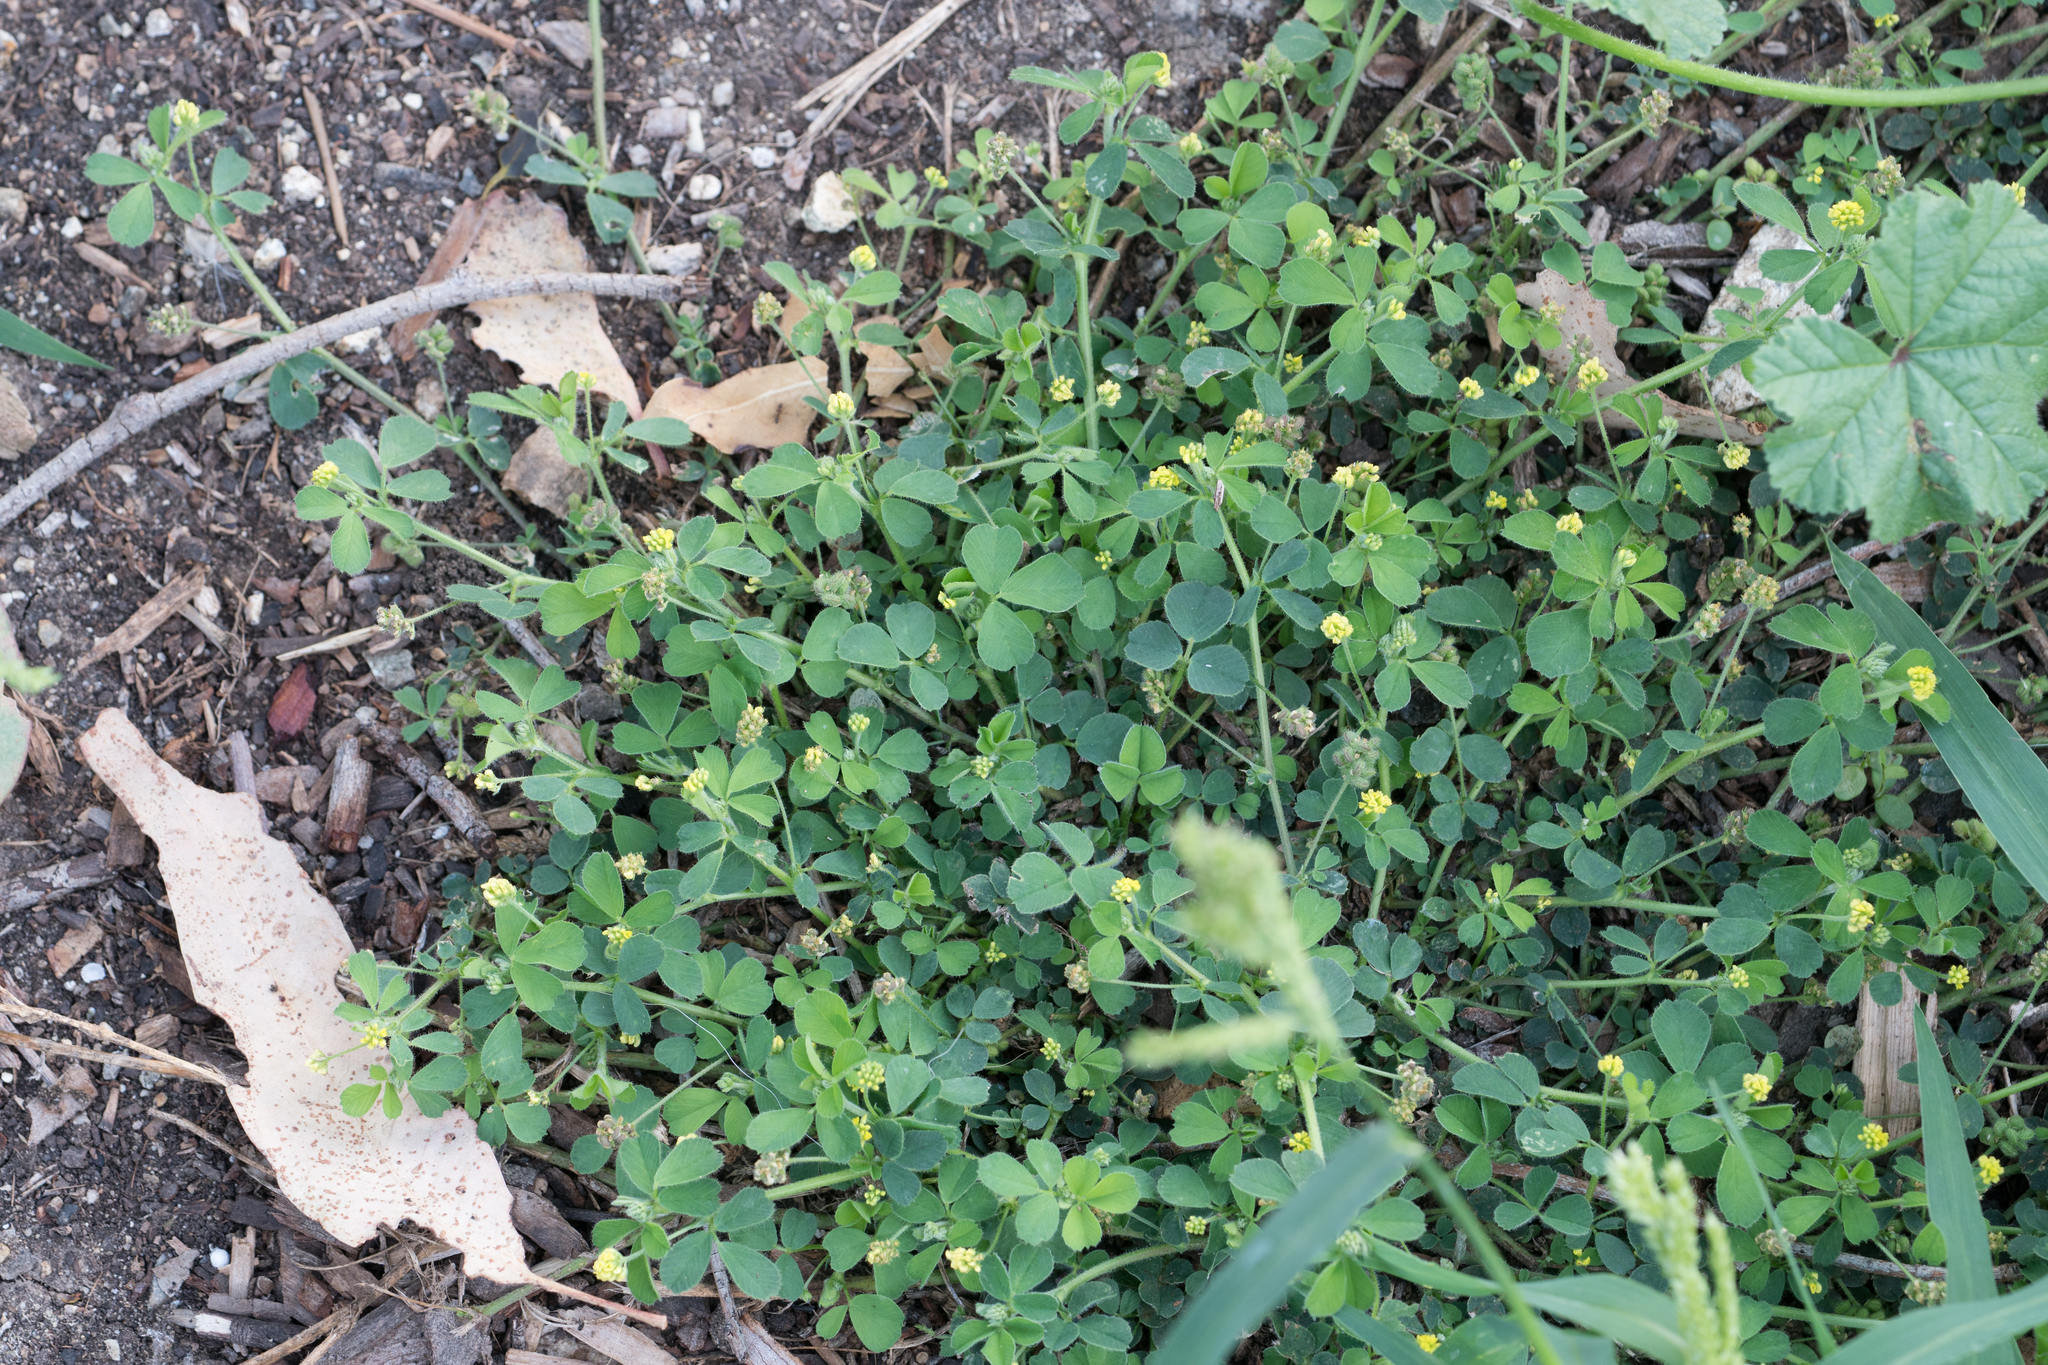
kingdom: Plantae
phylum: Tracheophyta
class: Magnoliopsida
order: Fabales
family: Fabaceae
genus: Medicago
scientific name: Medicago lupulina
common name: Black medick
